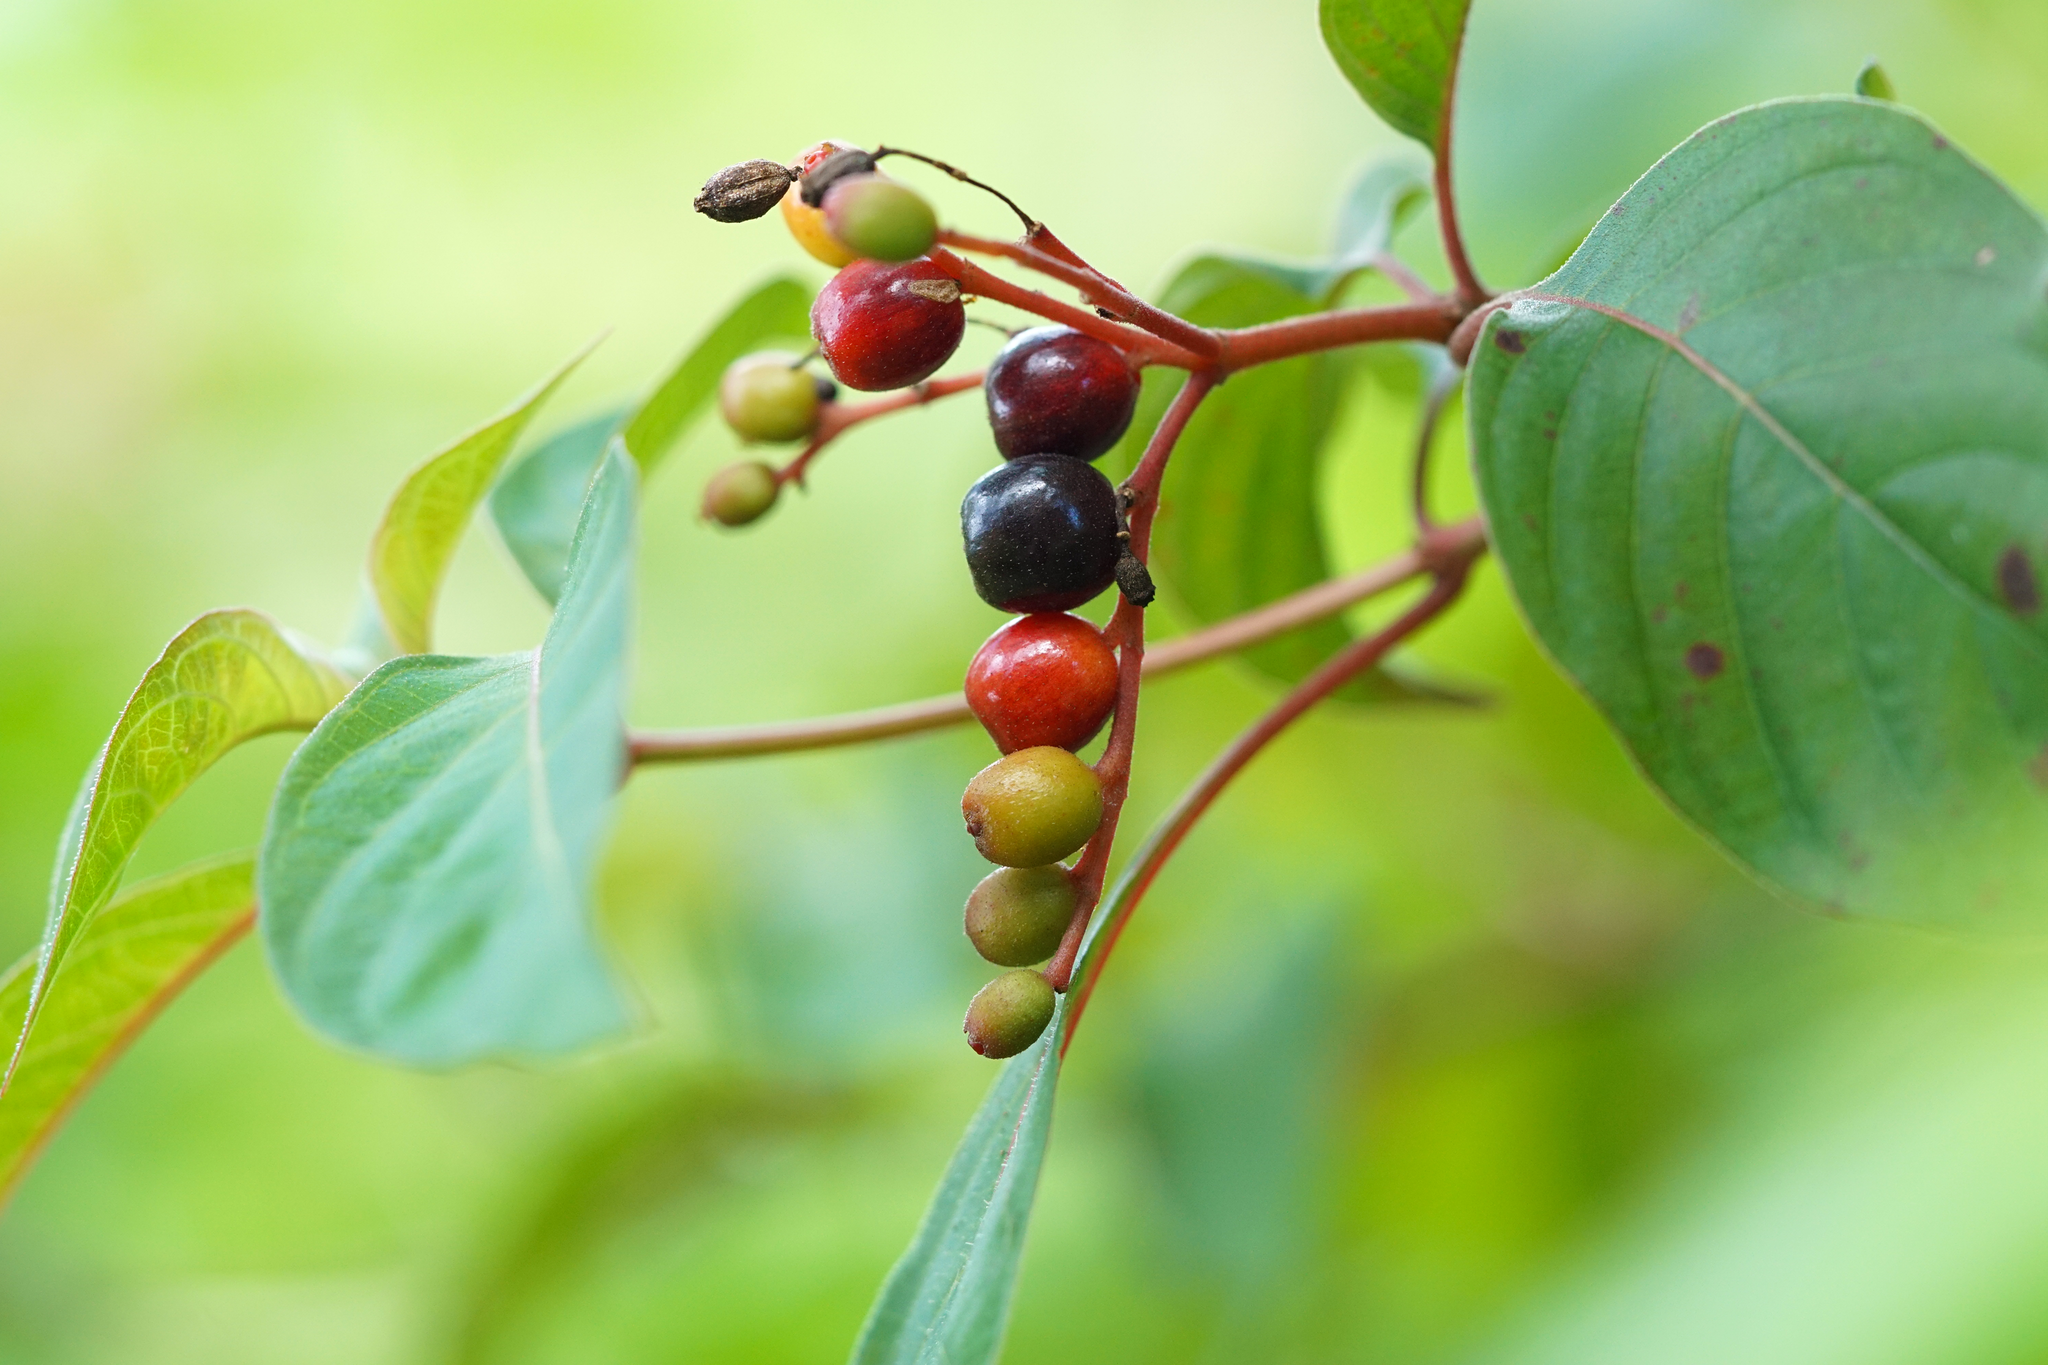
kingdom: Plantae
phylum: Tracheophyta
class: Magnoliopsida
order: Gentianales
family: Rubiaceae
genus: Hamelia
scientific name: Hamelia patens
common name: Redhead
